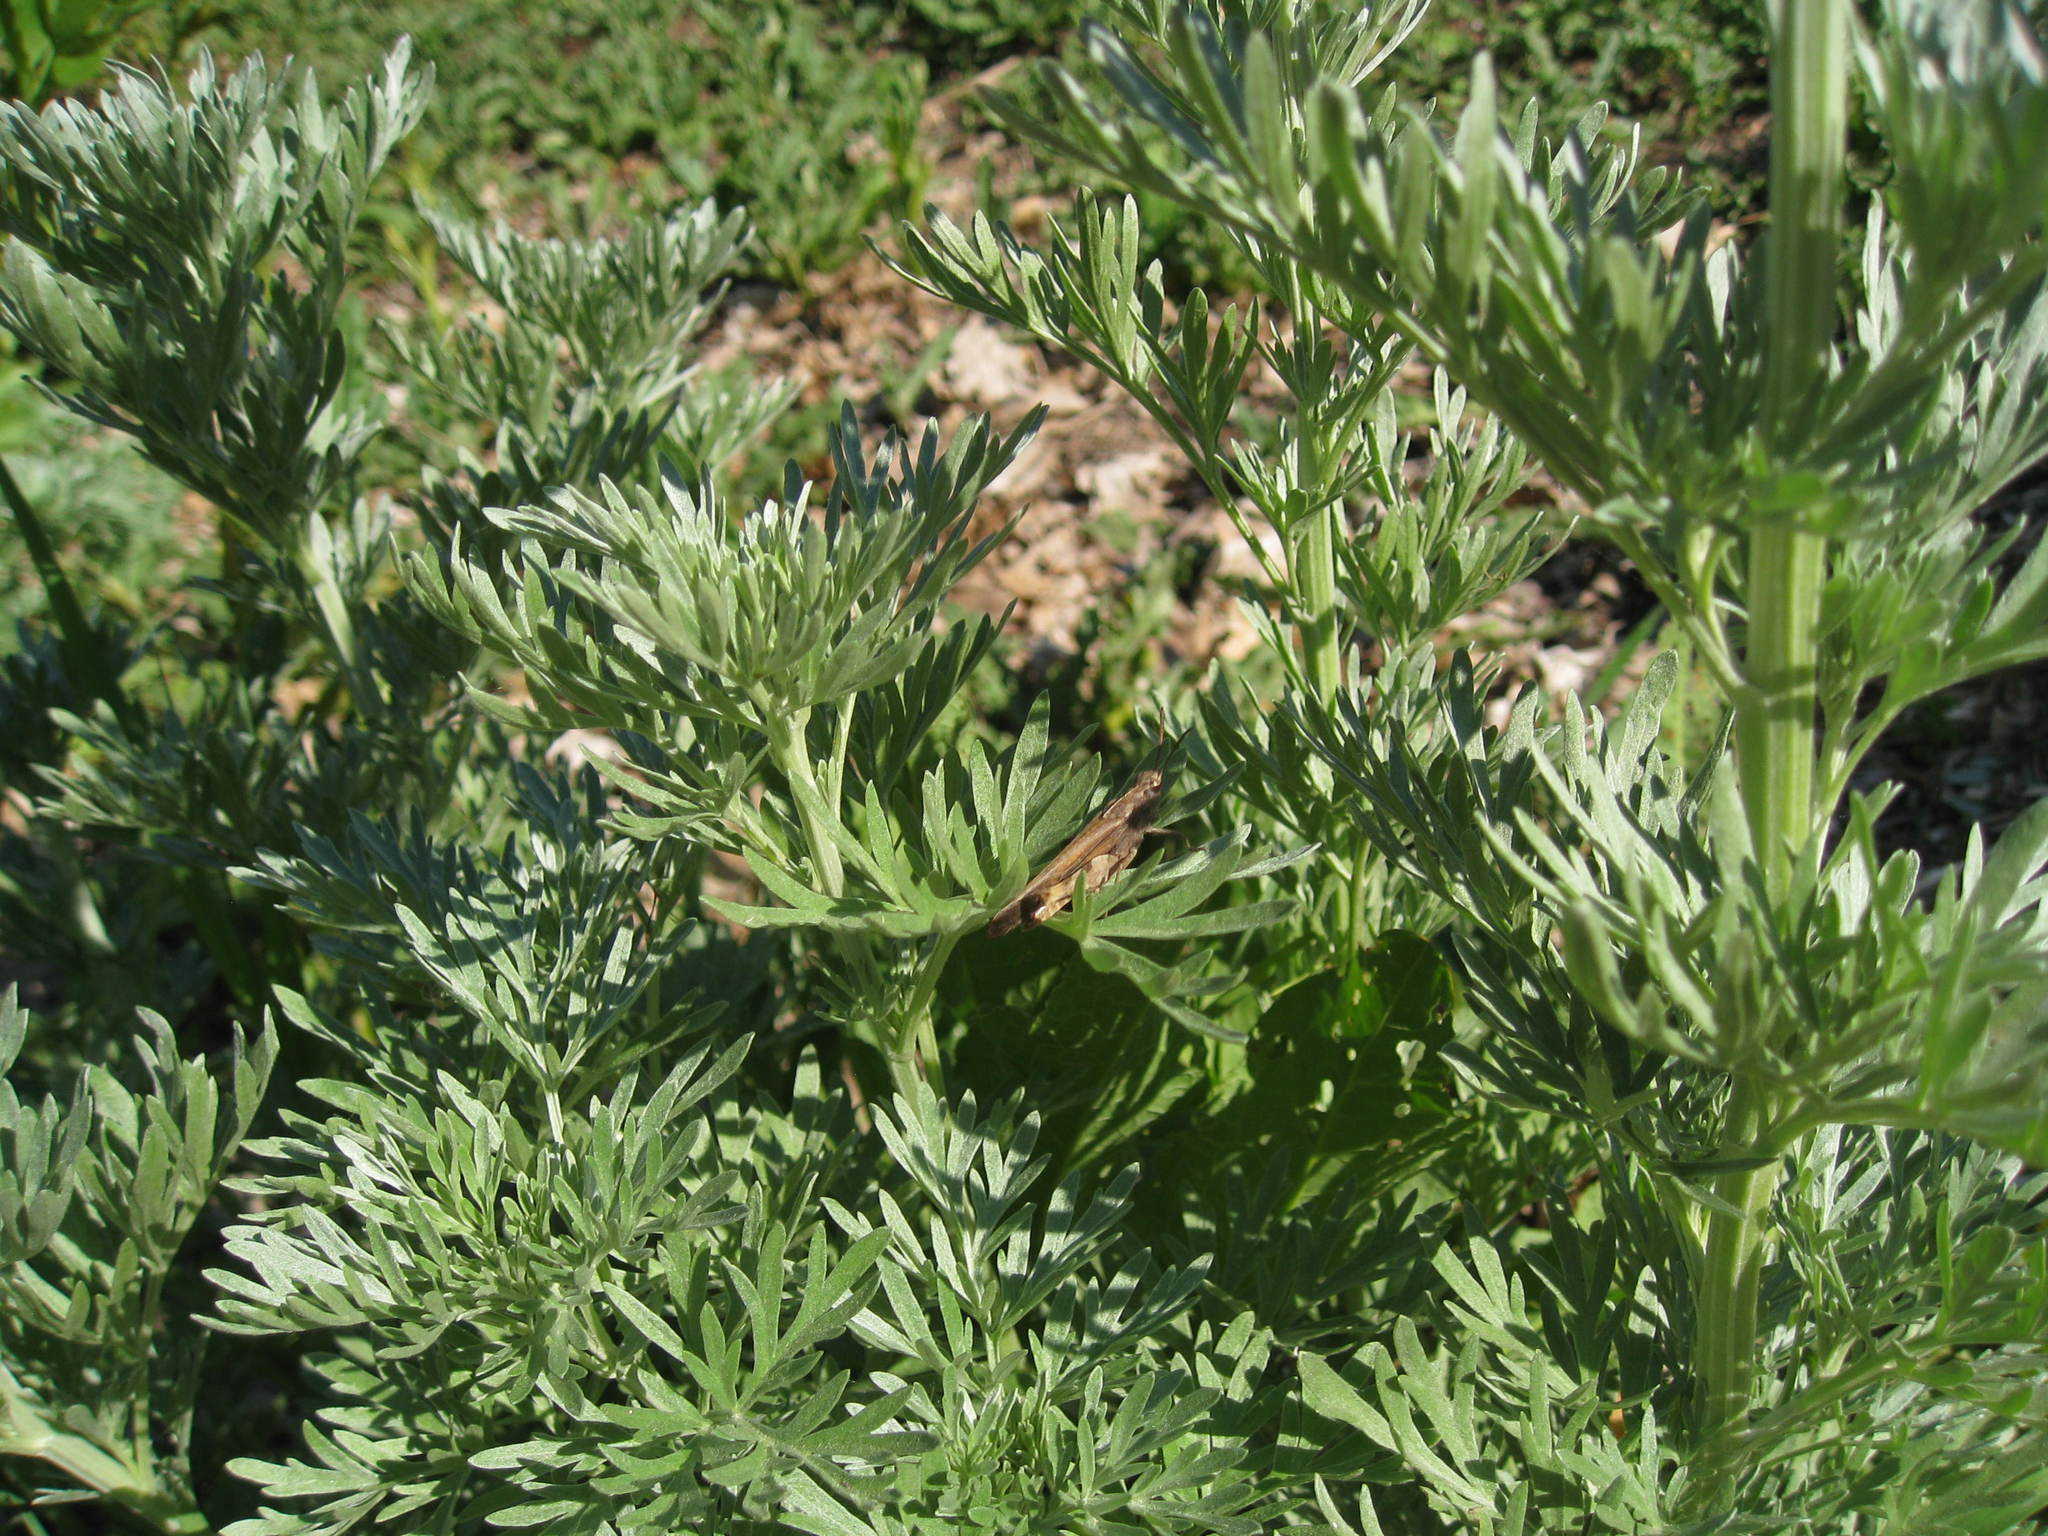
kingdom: Plantae
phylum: Tracheophyta
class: Magnoliopsida
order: Asterales
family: Asteraceae
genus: Artemisia
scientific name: Artemisia absinthium
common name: Wormwood
